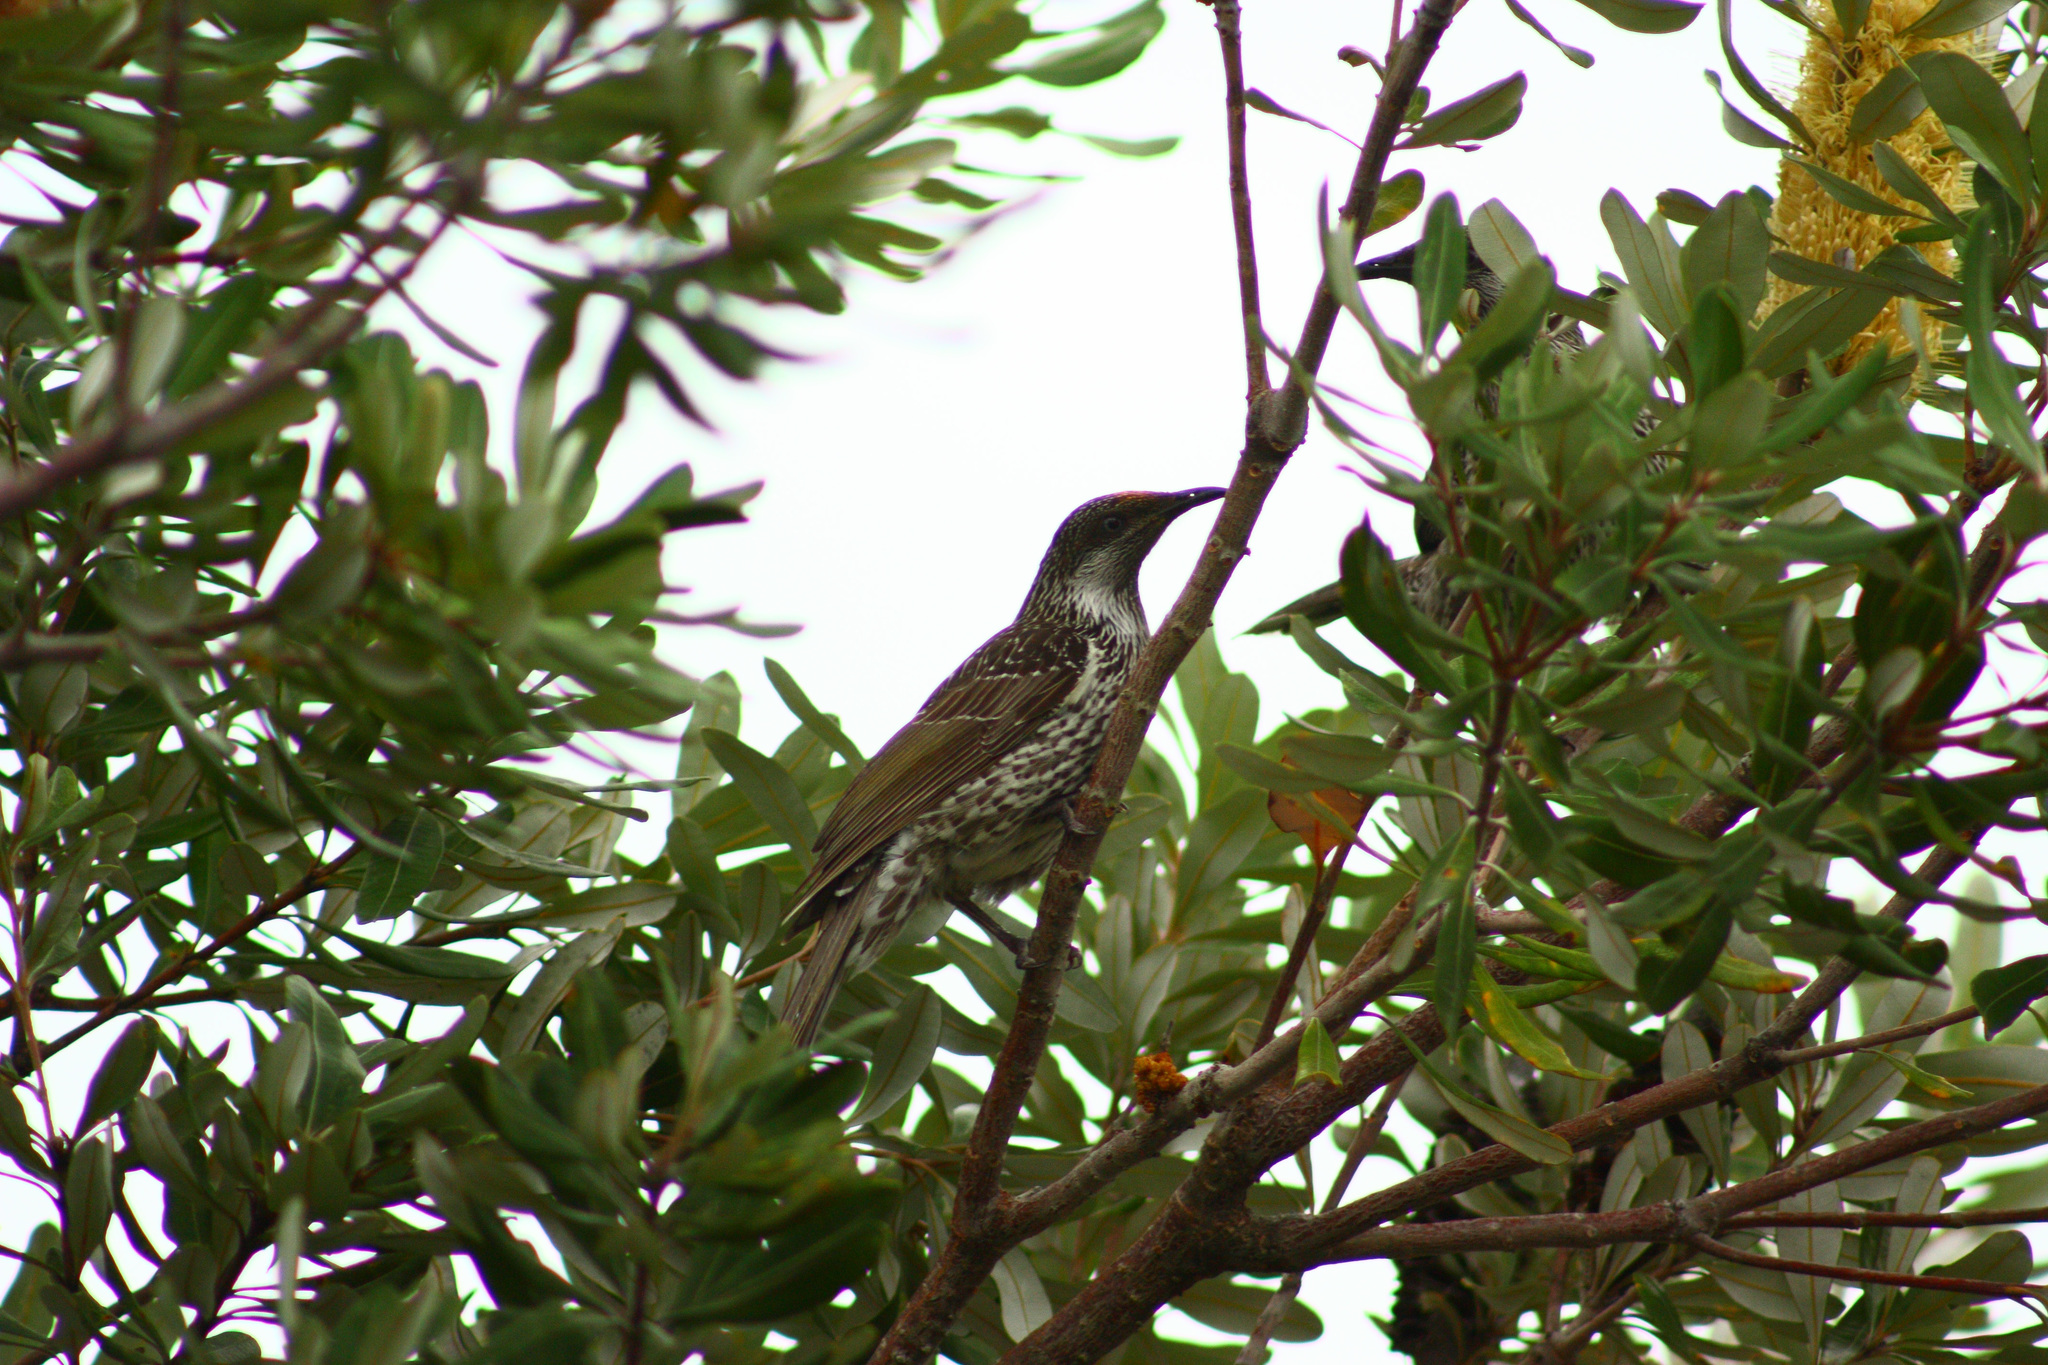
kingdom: Animalia
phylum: Chordata
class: Aves
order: Passeriformes
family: Meliphagidae
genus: Anthochaera
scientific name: Anthochaera chrysoptera
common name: Little wattlebird
